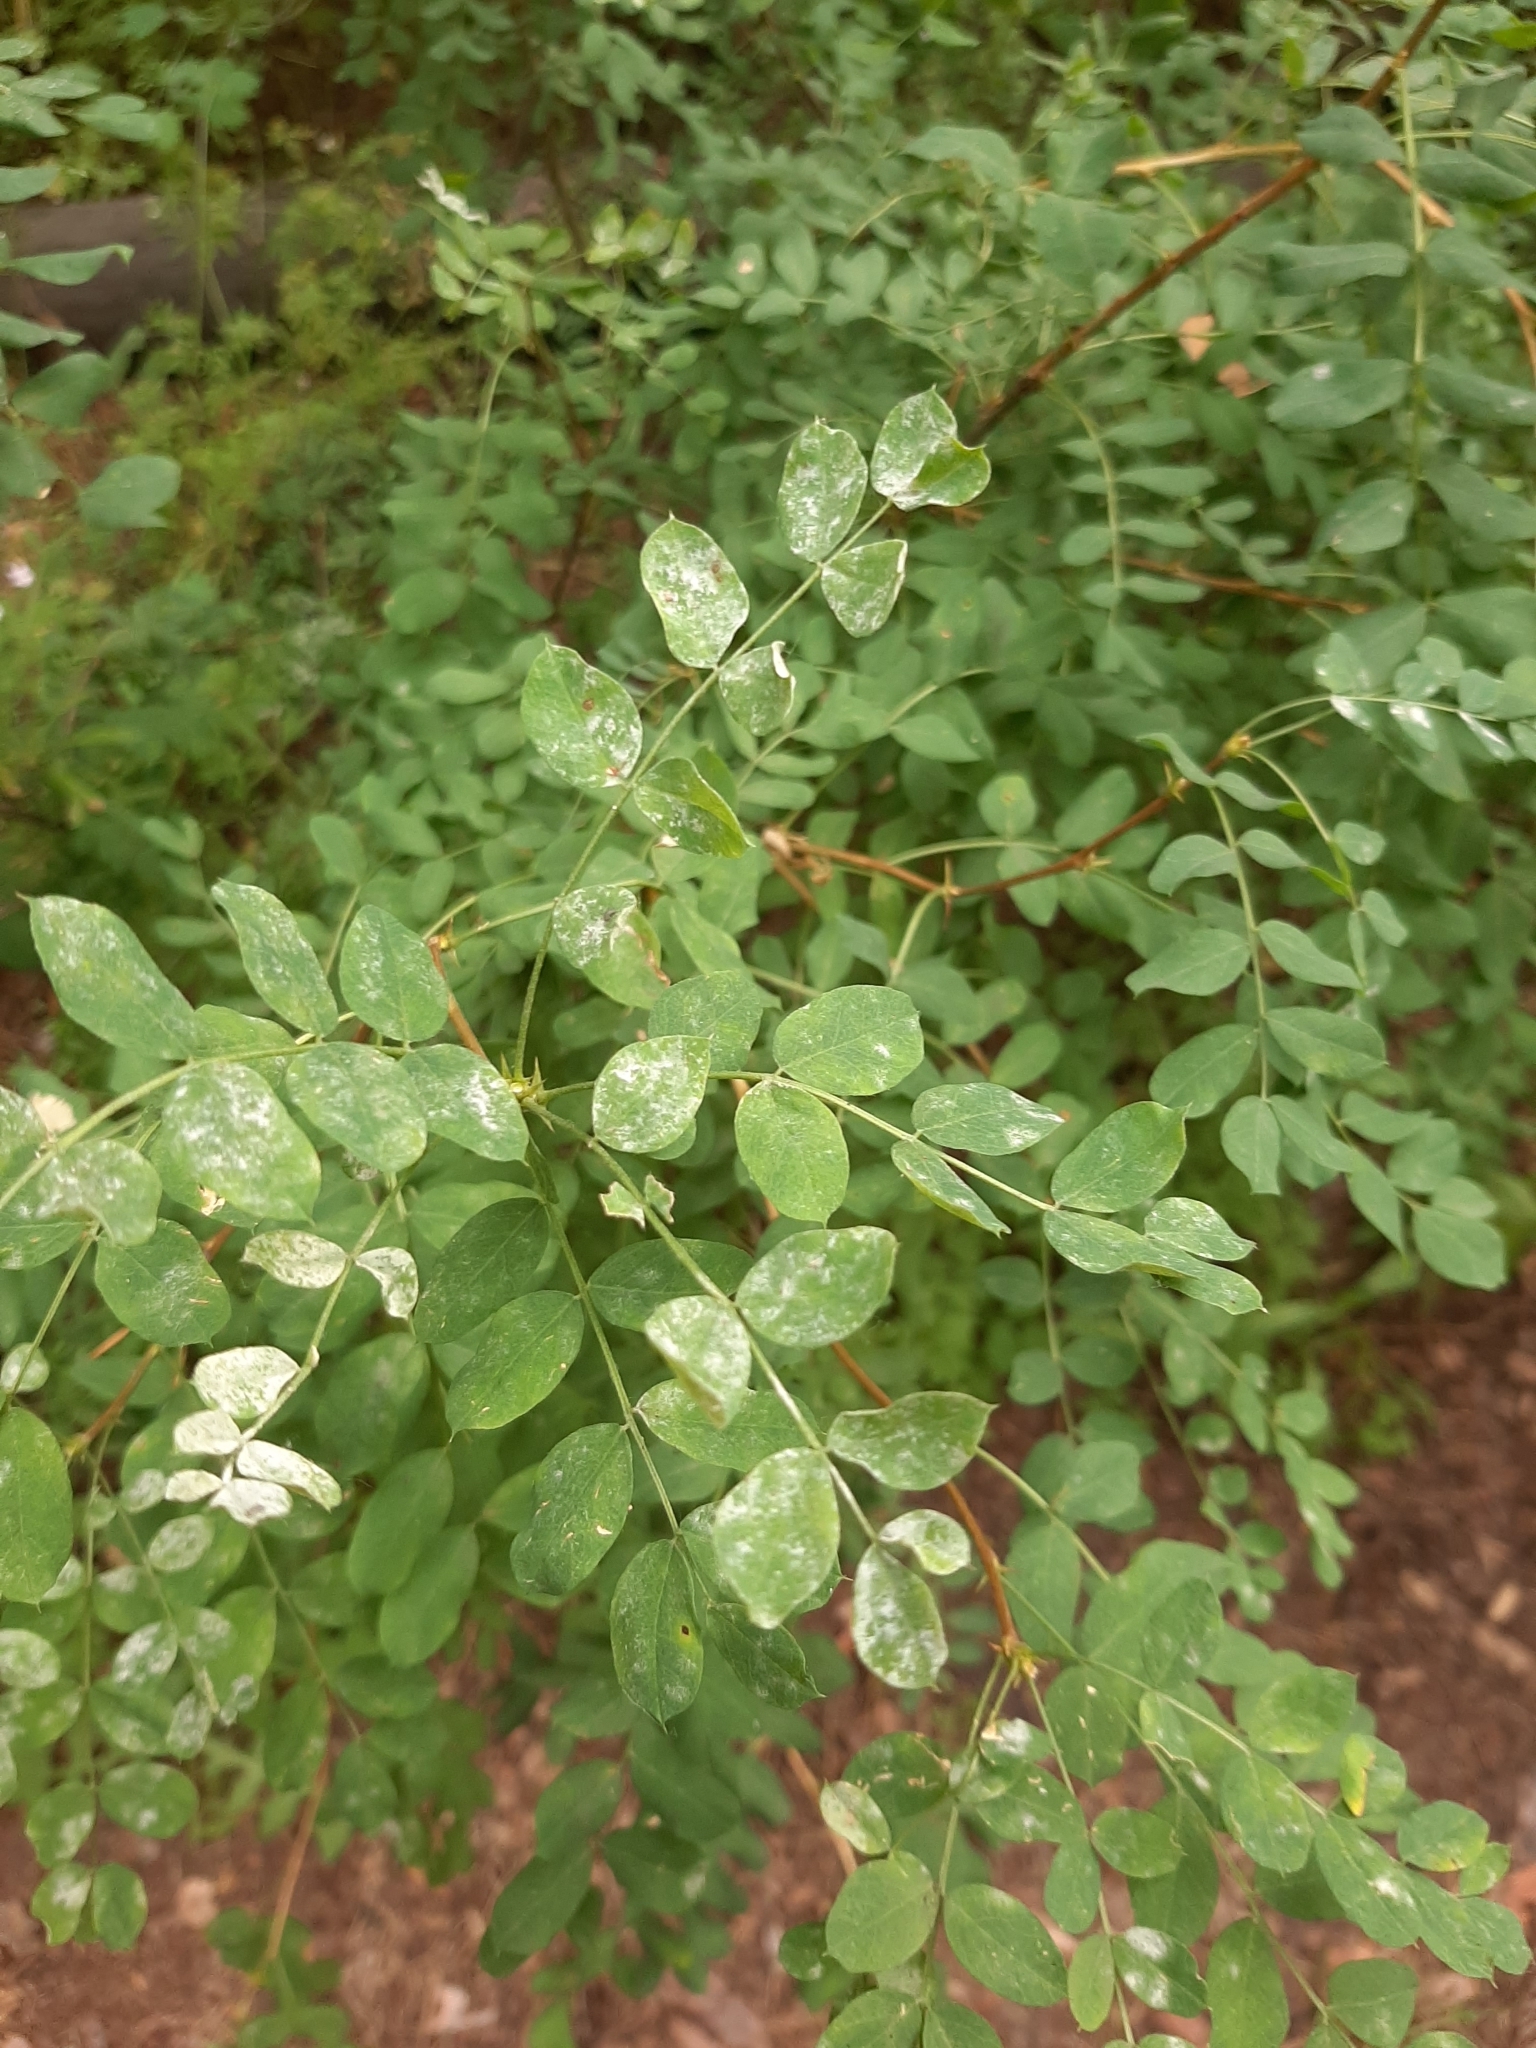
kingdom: Plantae
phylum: Tracheophyta
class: Magnoliopsida
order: Fabales
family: Fabaceae
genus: Caragana
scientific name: Caragana arborescens
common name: Siberian peashrub
